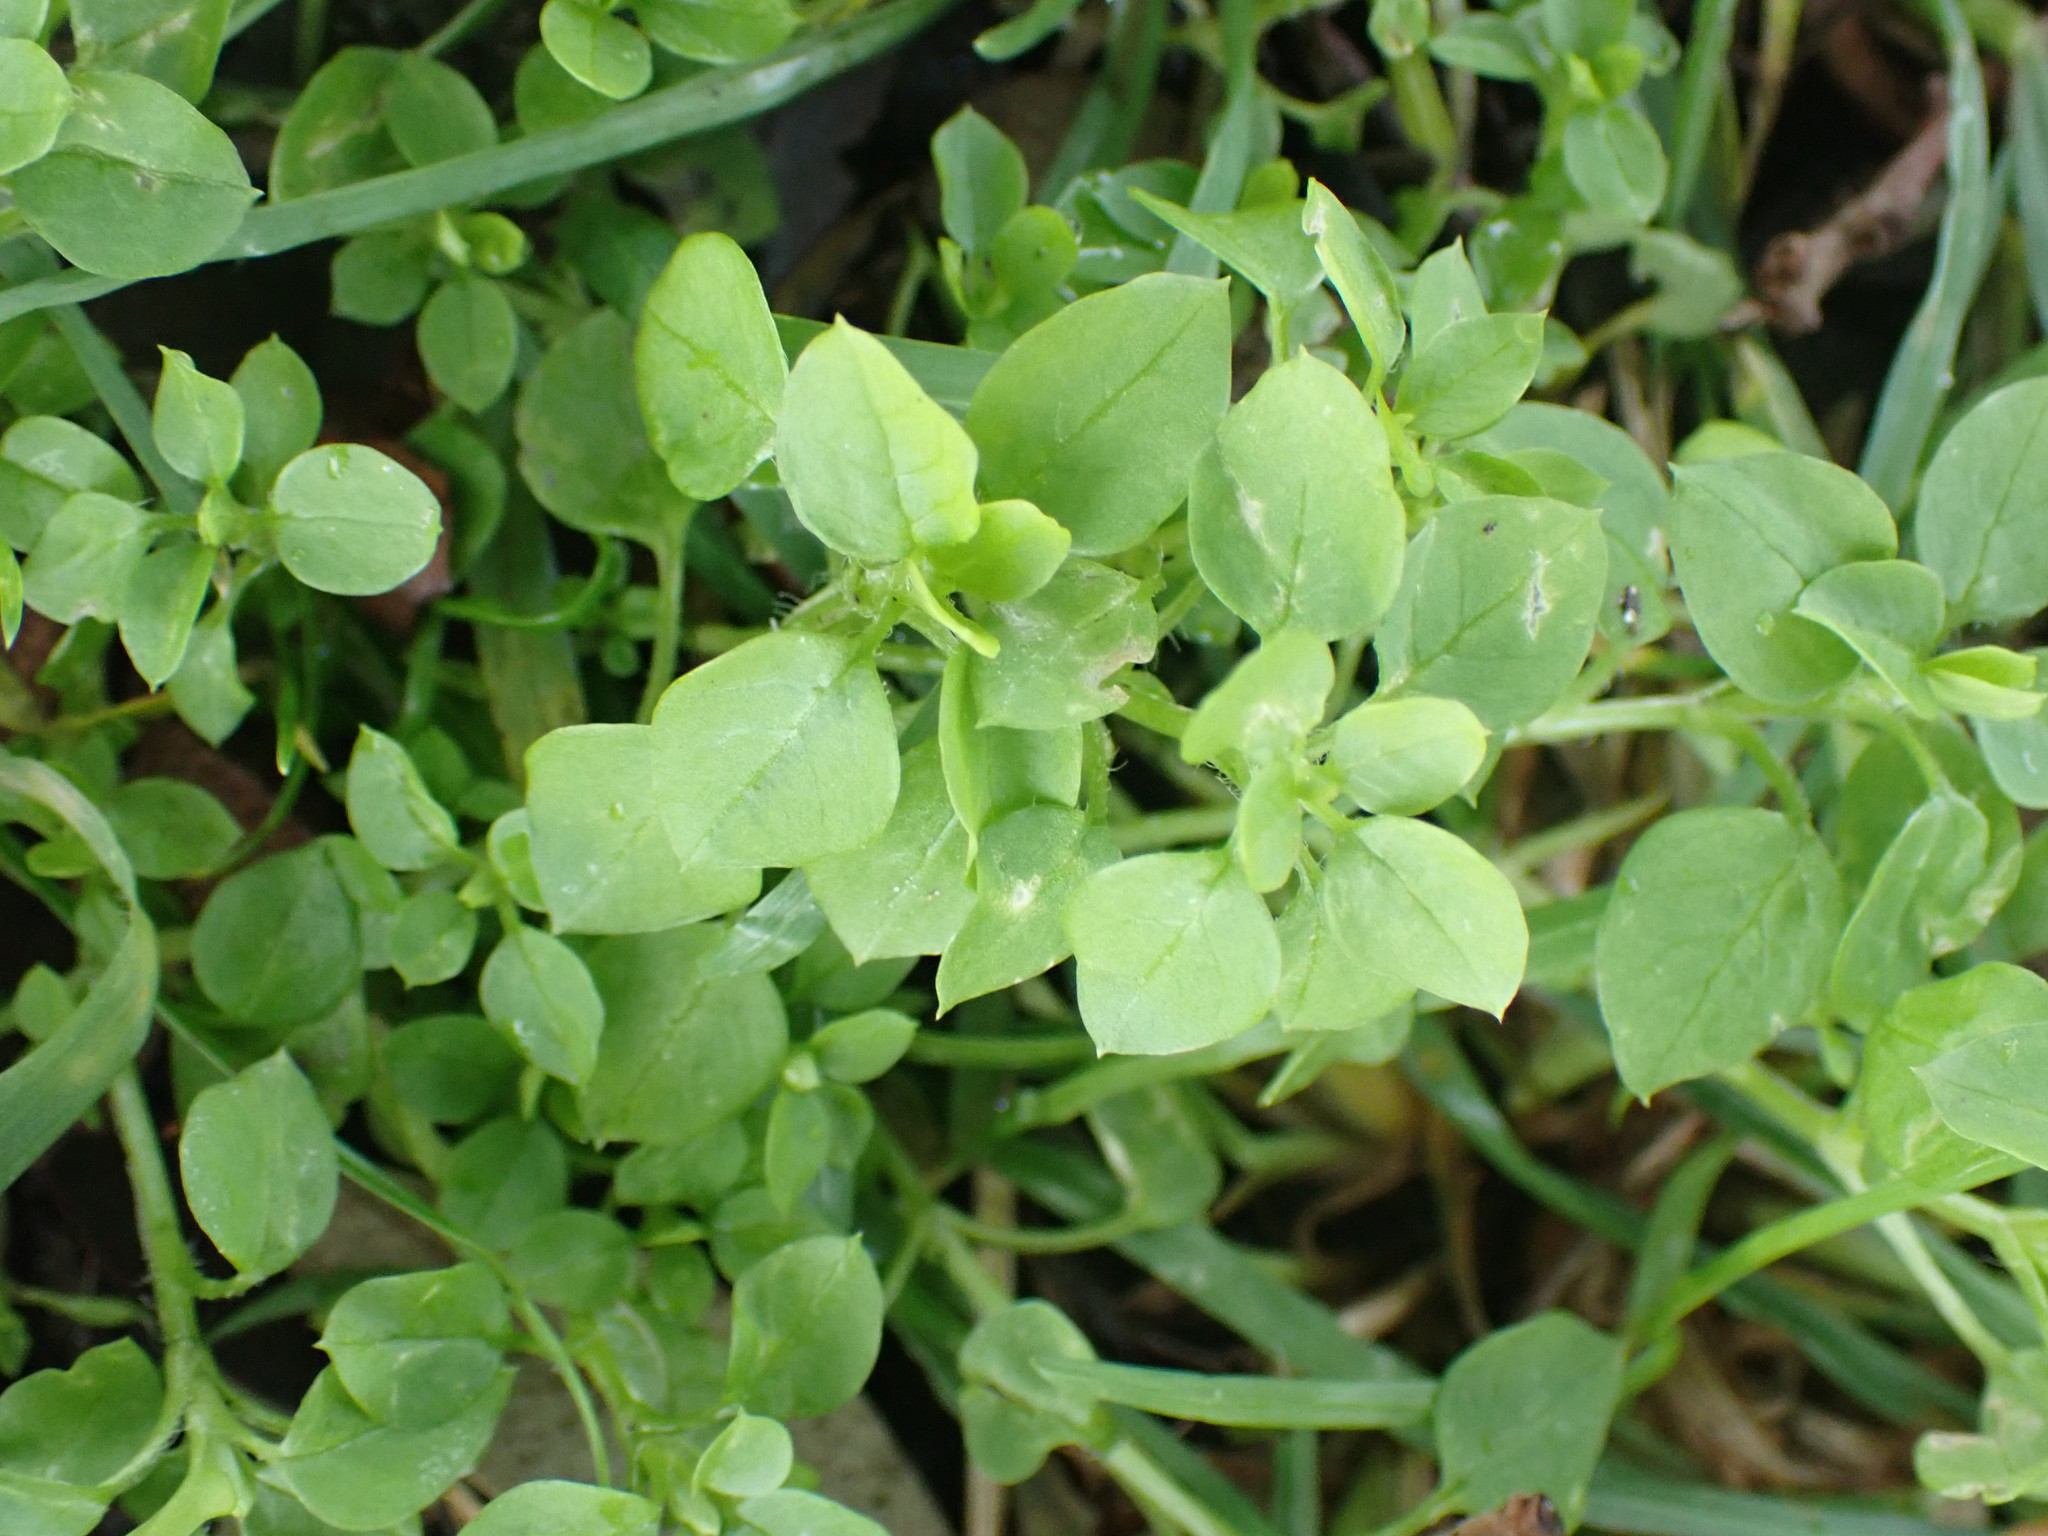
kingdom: Plantae
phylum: Tracheophyta
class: Magnoliopsida
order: Caryophyllales
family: Caryophyllaceae
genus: Stellaria
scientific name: Stellaria media
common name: Common chickweed
